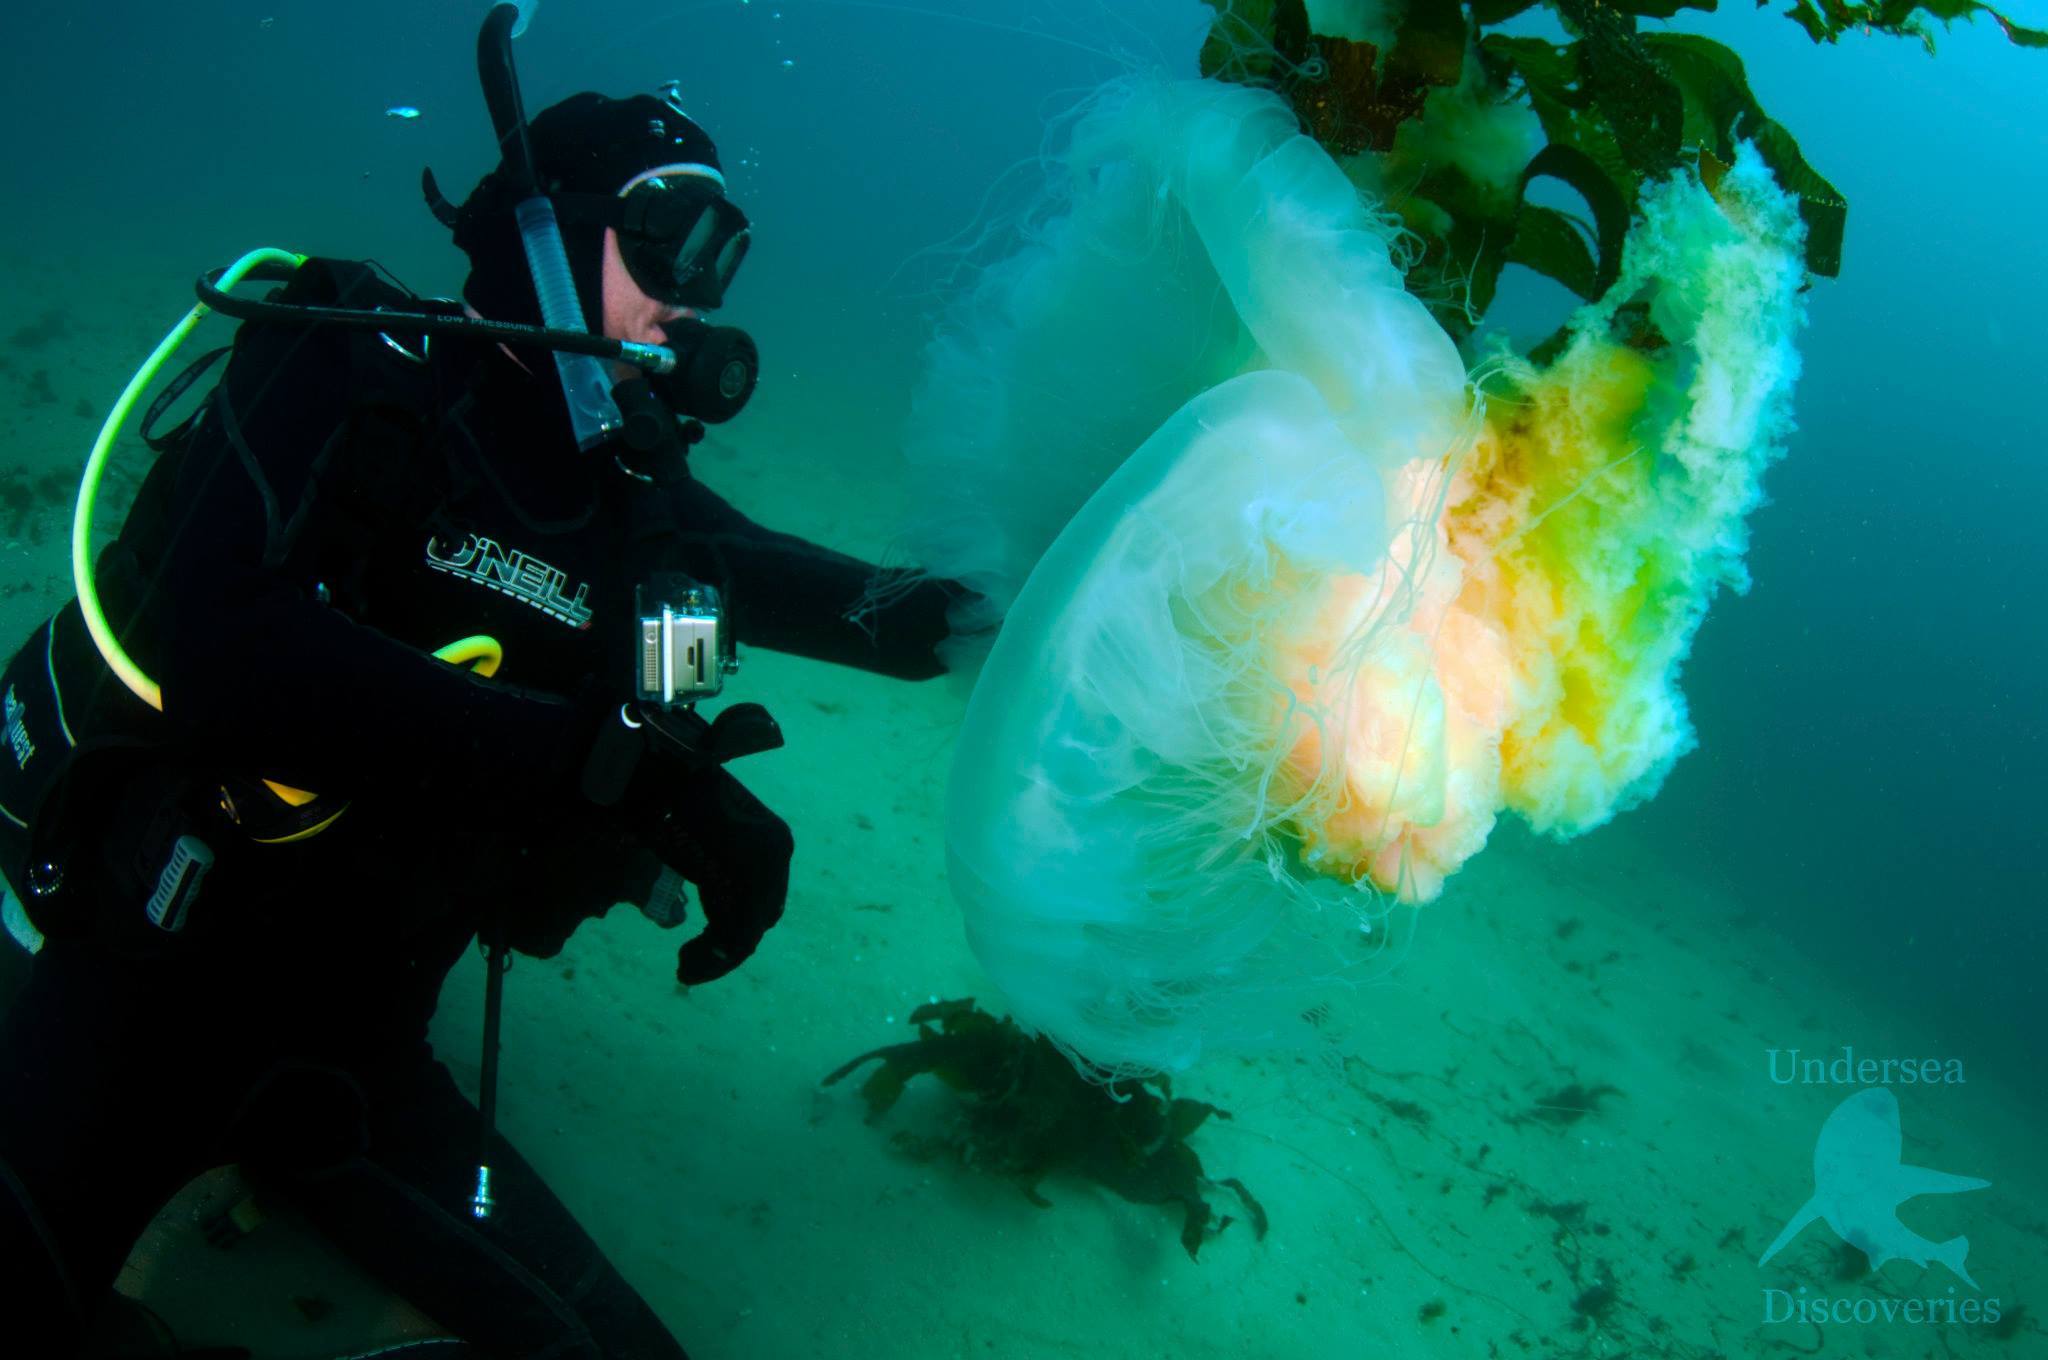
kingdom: Animalia
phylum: Cnidaria
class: Scyphozoa
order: Semaeostomeae
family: Phacellophoridae
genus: Phacellophora
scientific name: Phacellophora camtschatica
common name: Fried-egg jellyfish
